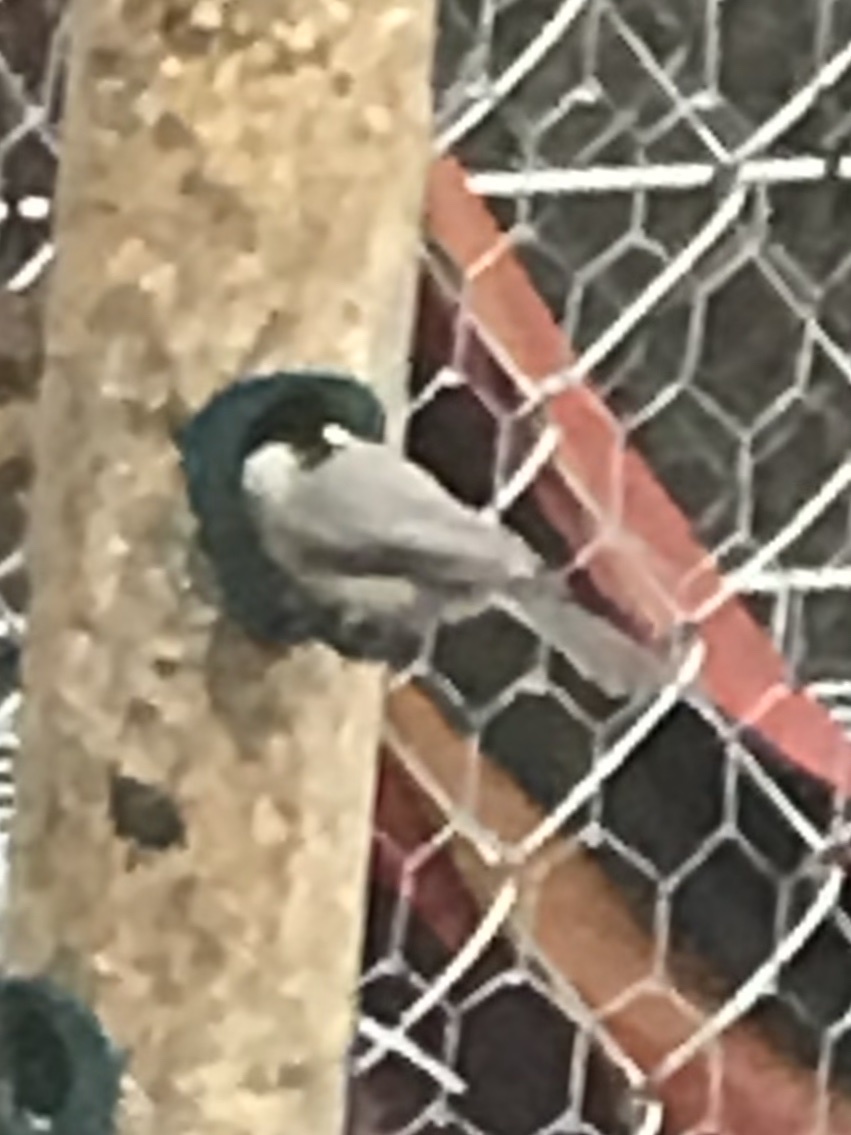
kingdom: Animalia
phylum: Chordata
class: Aves
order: Passeriformes
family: Paridae
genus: Poecile
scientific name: Poecile carolinensis
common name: Carolina chickadee
